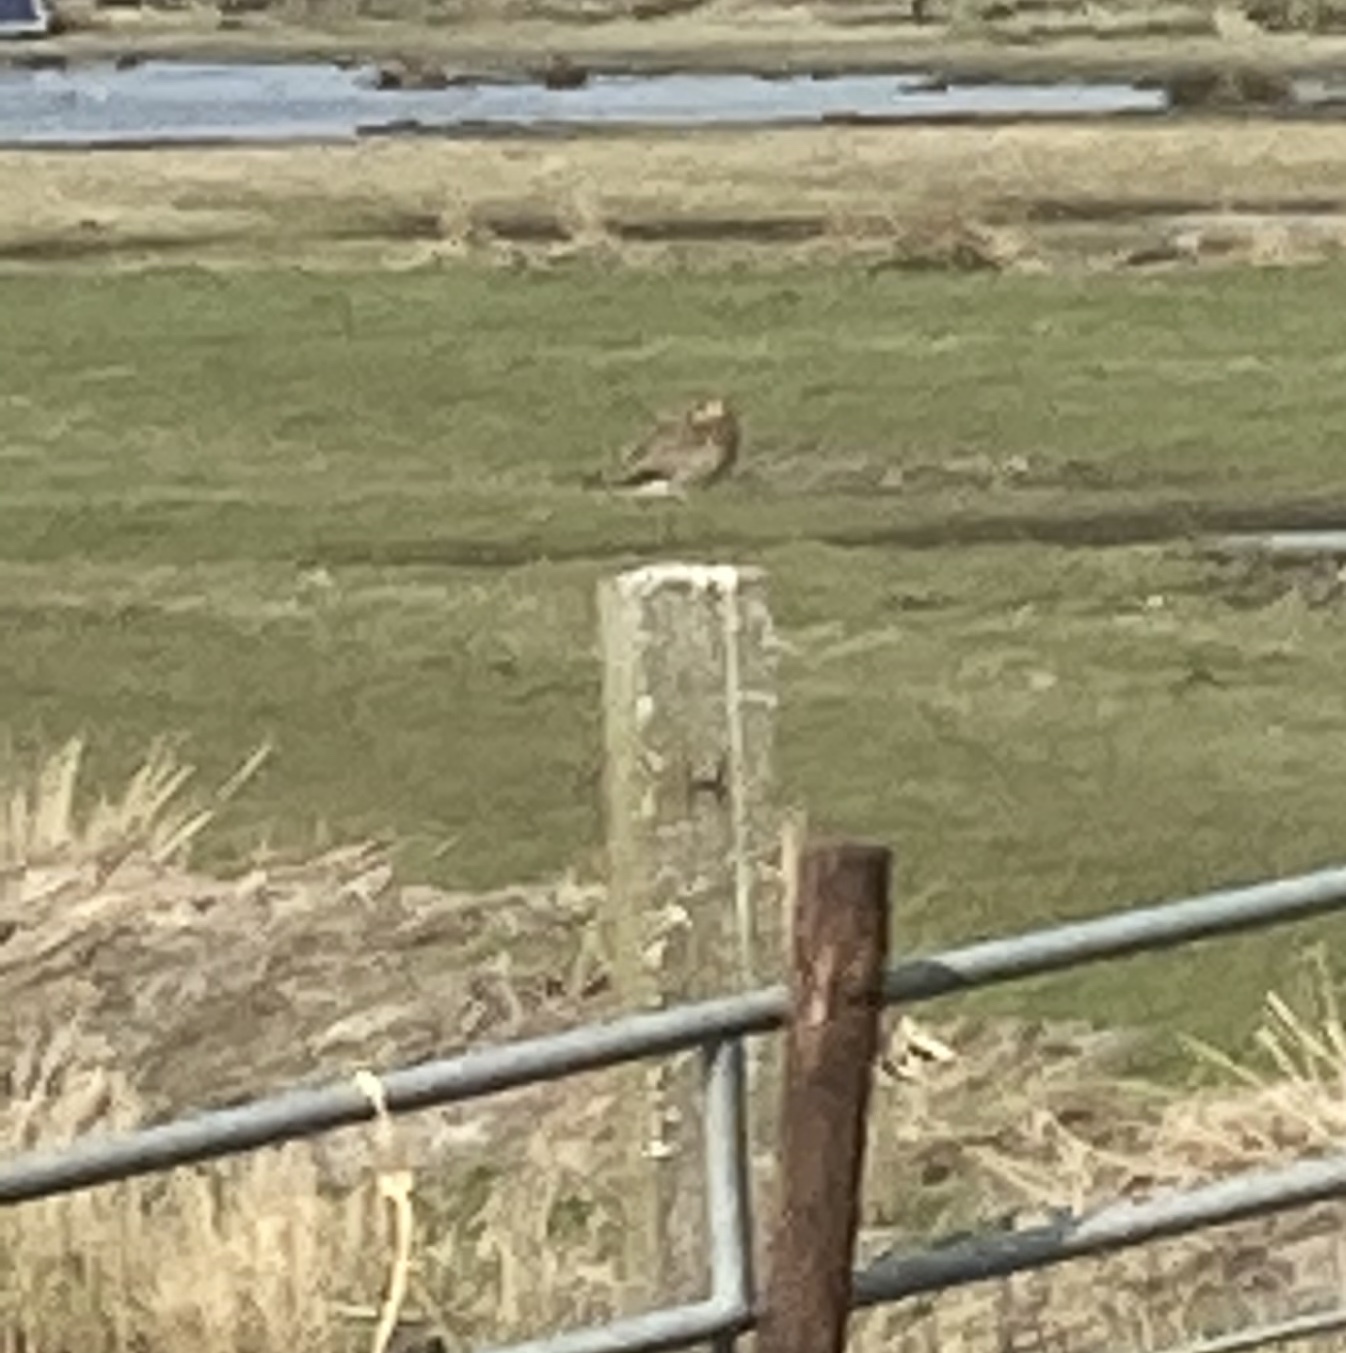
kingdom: Animalia
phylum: Chordata
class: Aves
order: Charadriiformes
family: Scolopacidae
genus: Limosa
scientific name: Limosa limosa
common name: Black-tailed godwit
